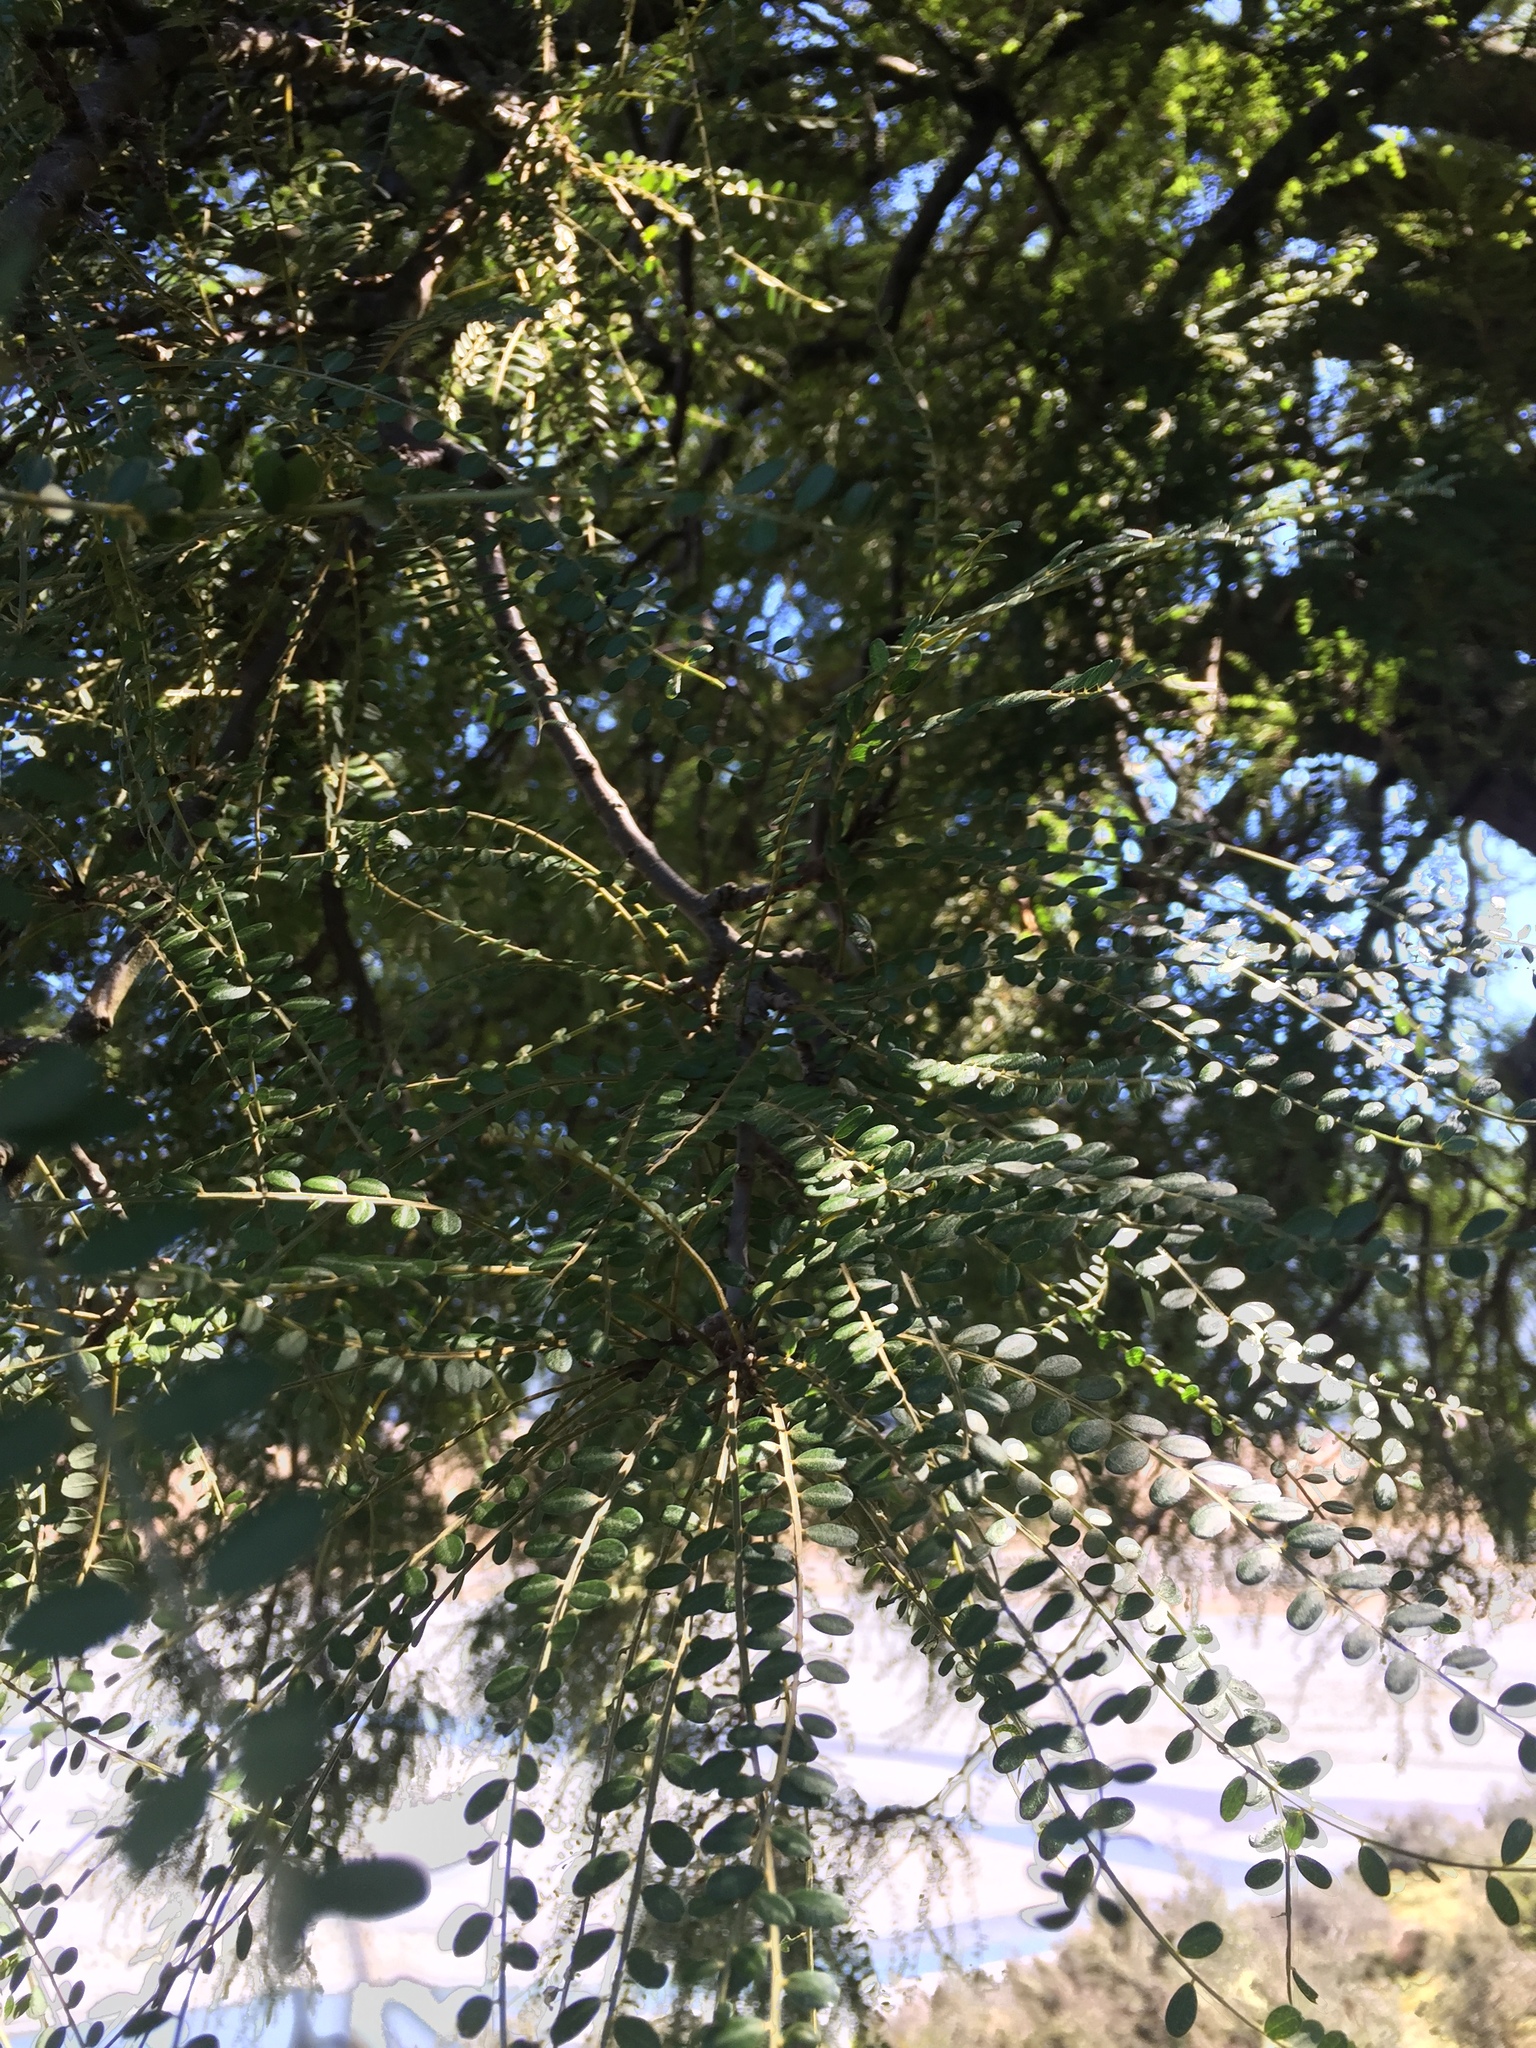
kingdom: Plantae
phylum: Tracheophyta
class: Magnoliopsida
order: Fabales
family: Fabaceae
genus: Sophora
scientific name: Sophora microphylla
